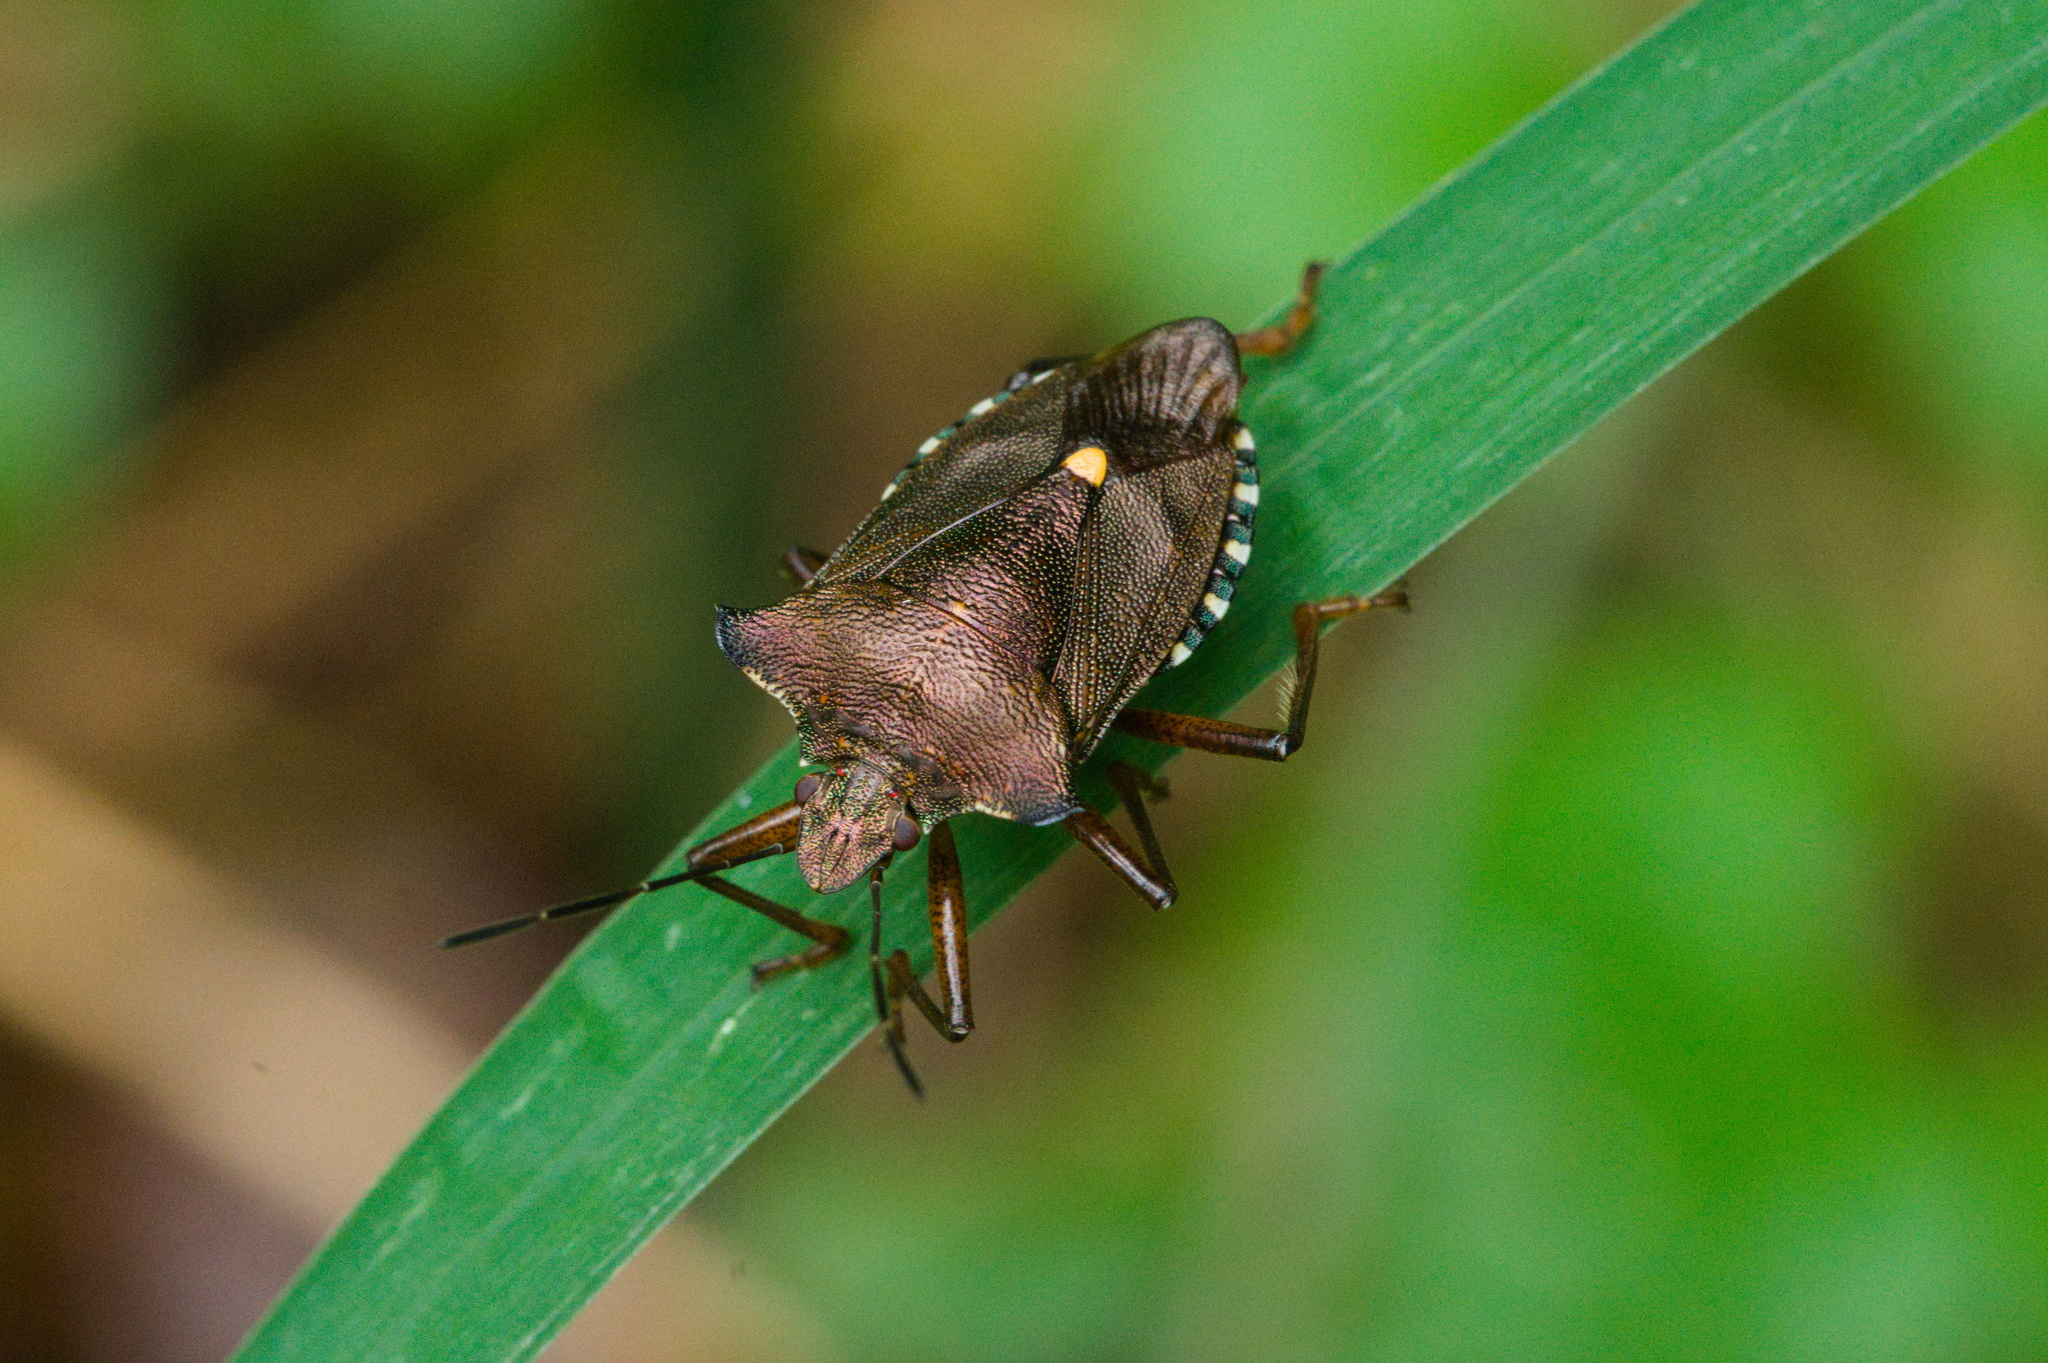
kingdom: Animalia
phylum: Arthropoda
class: Insecta
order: Hemiptera
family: Pentatomidae
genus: Pentatoma
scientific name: Pentatoma rufipes
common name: Forest bug
